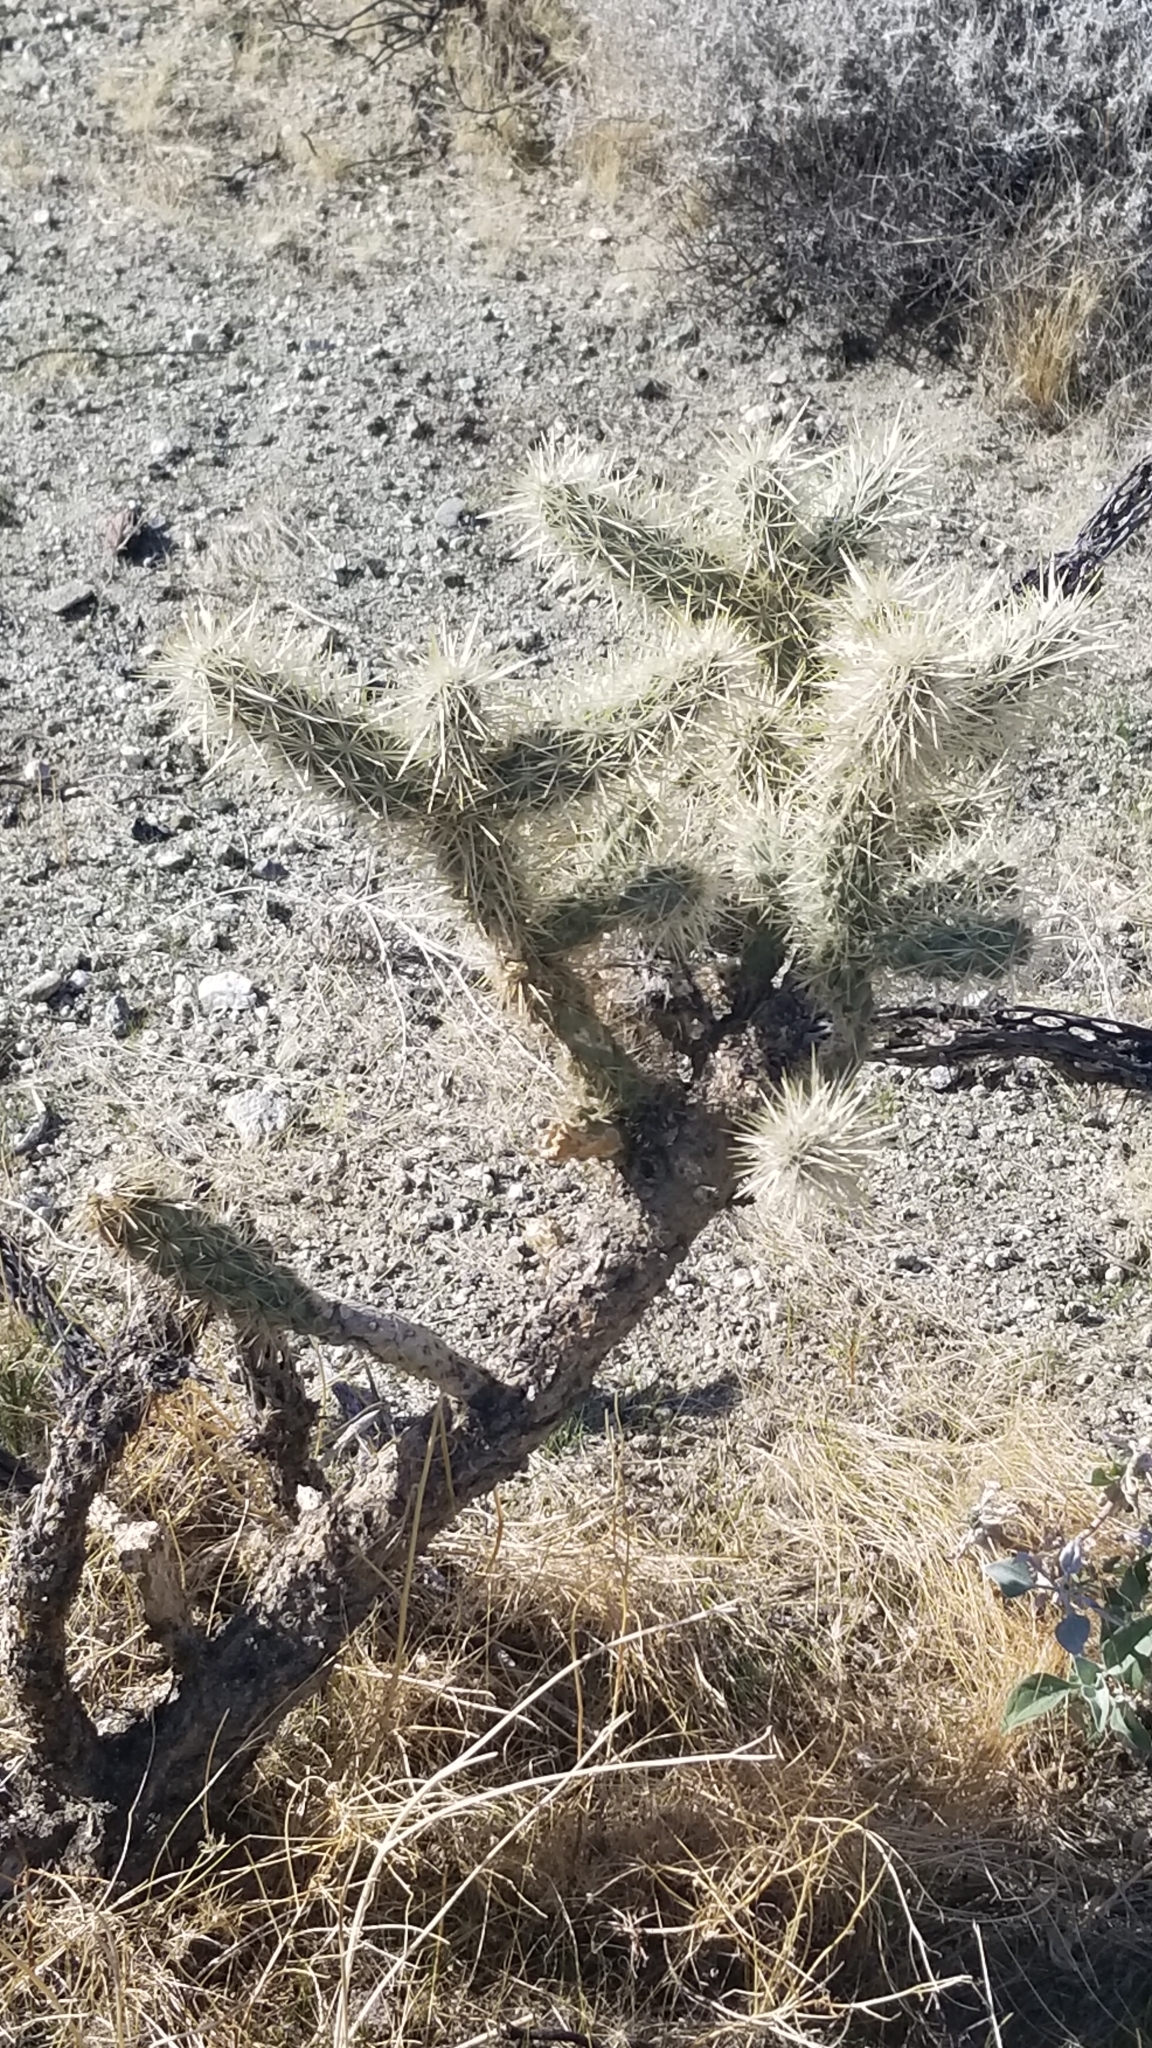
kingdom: Plantae
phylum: Tracheophyta
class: Magnoliopsida
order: Caryophyllales
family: Cactaceae
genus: Cylindropuntia
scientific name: Cylindropuntia echinocarpa
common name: Ground cholla
